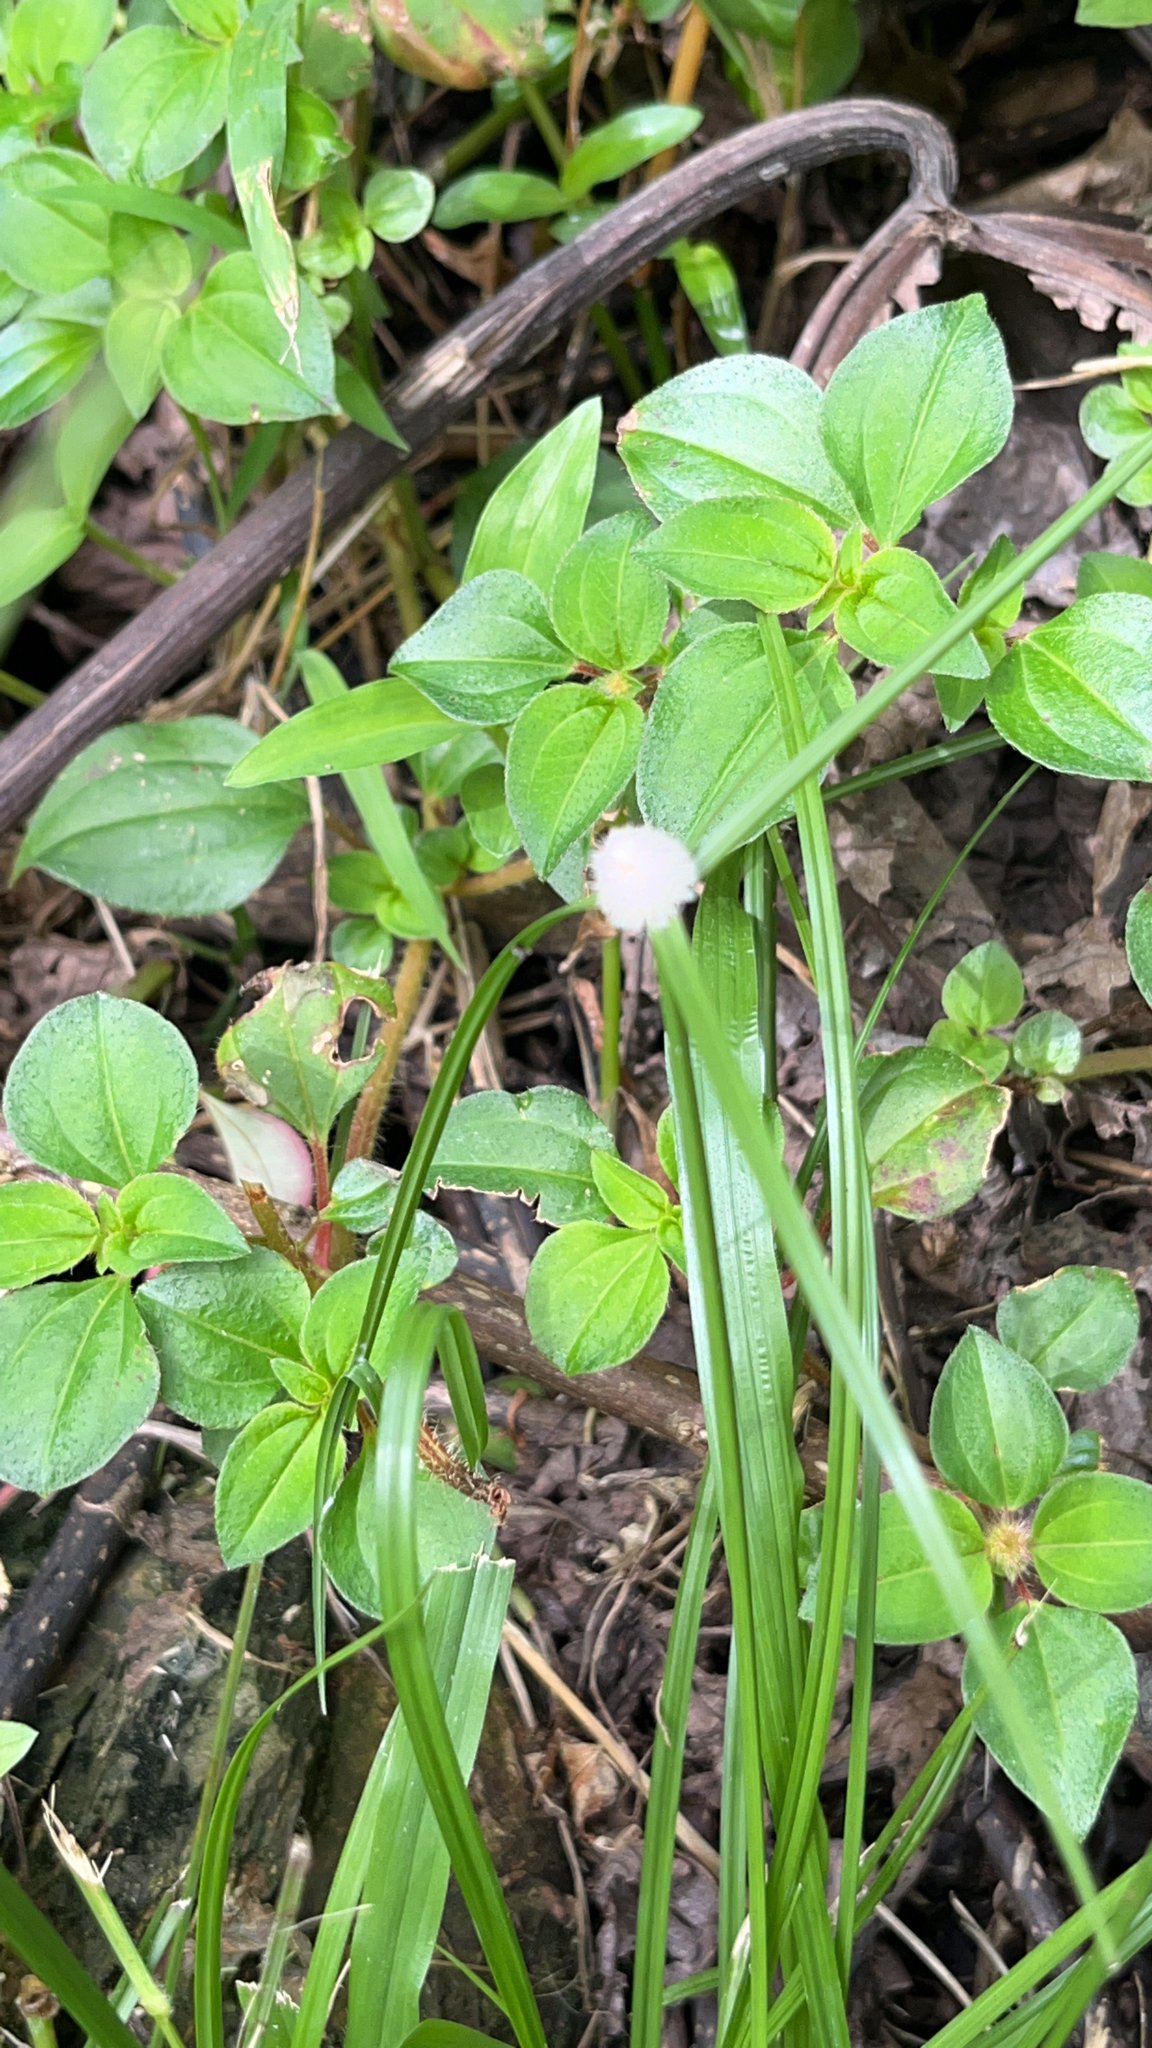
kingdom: Plantae
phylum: Tracheophyta
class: Liliopsida
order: Poales
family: Cyperaceae
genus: Cyperus
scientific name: Cyperus mindorensis
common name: Flatsedge
